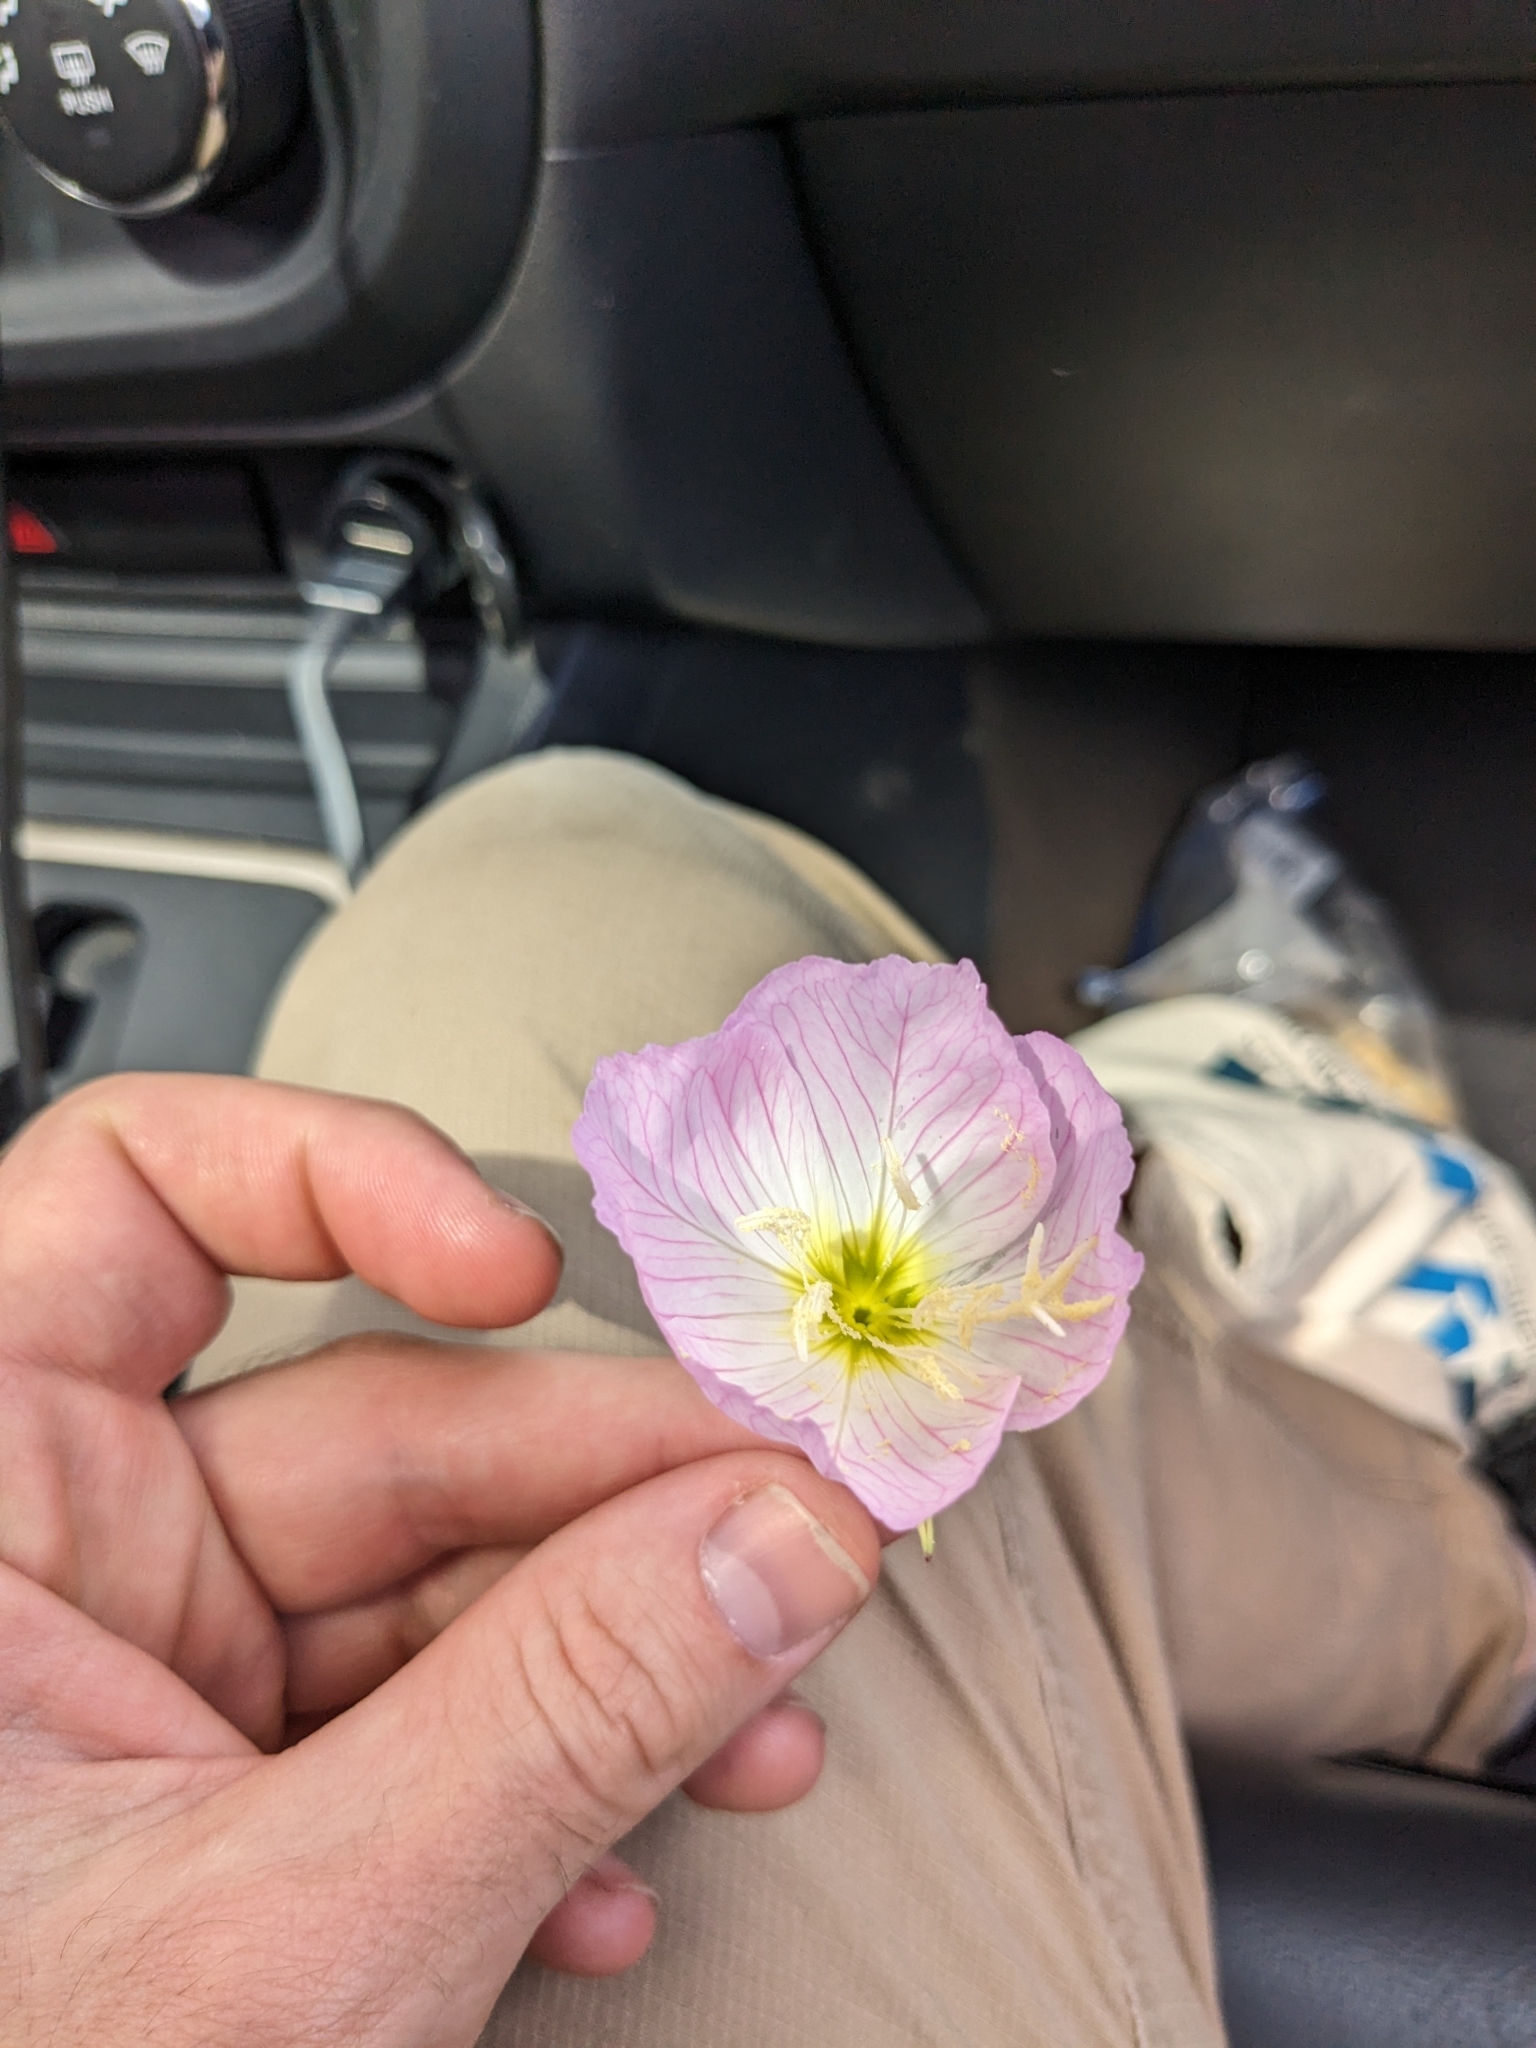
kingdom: Plantae
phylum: Tracheophyta
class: Magnoliopsida
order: Myrtales
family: Onagraceae
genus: Oenothera
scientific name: Oenothera speciosa
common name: White evening-primrose
